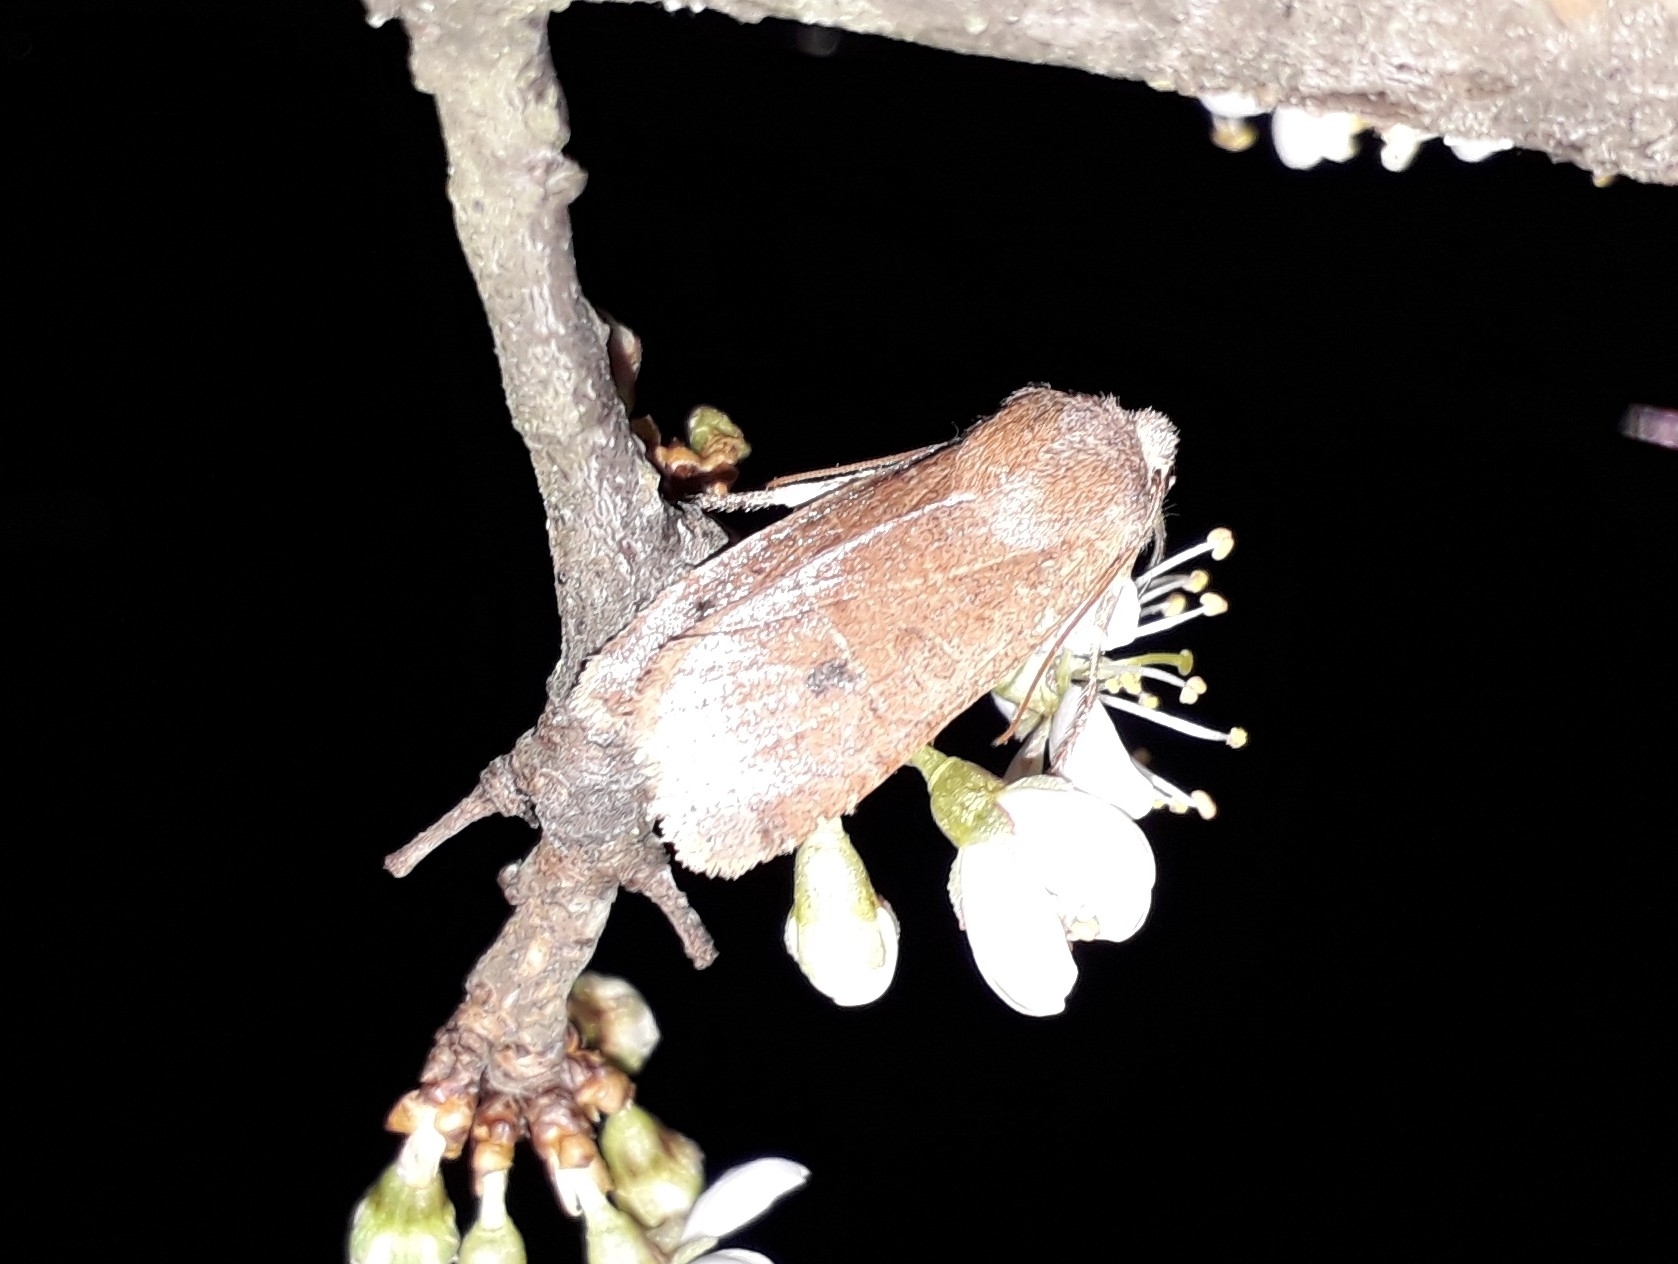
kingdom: Animalia
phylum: Arthropoda
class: Insecta
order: Lepidoptera
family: Noctuidae
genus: Conistra
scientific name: Conistra vaccinii
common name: Chestnut
